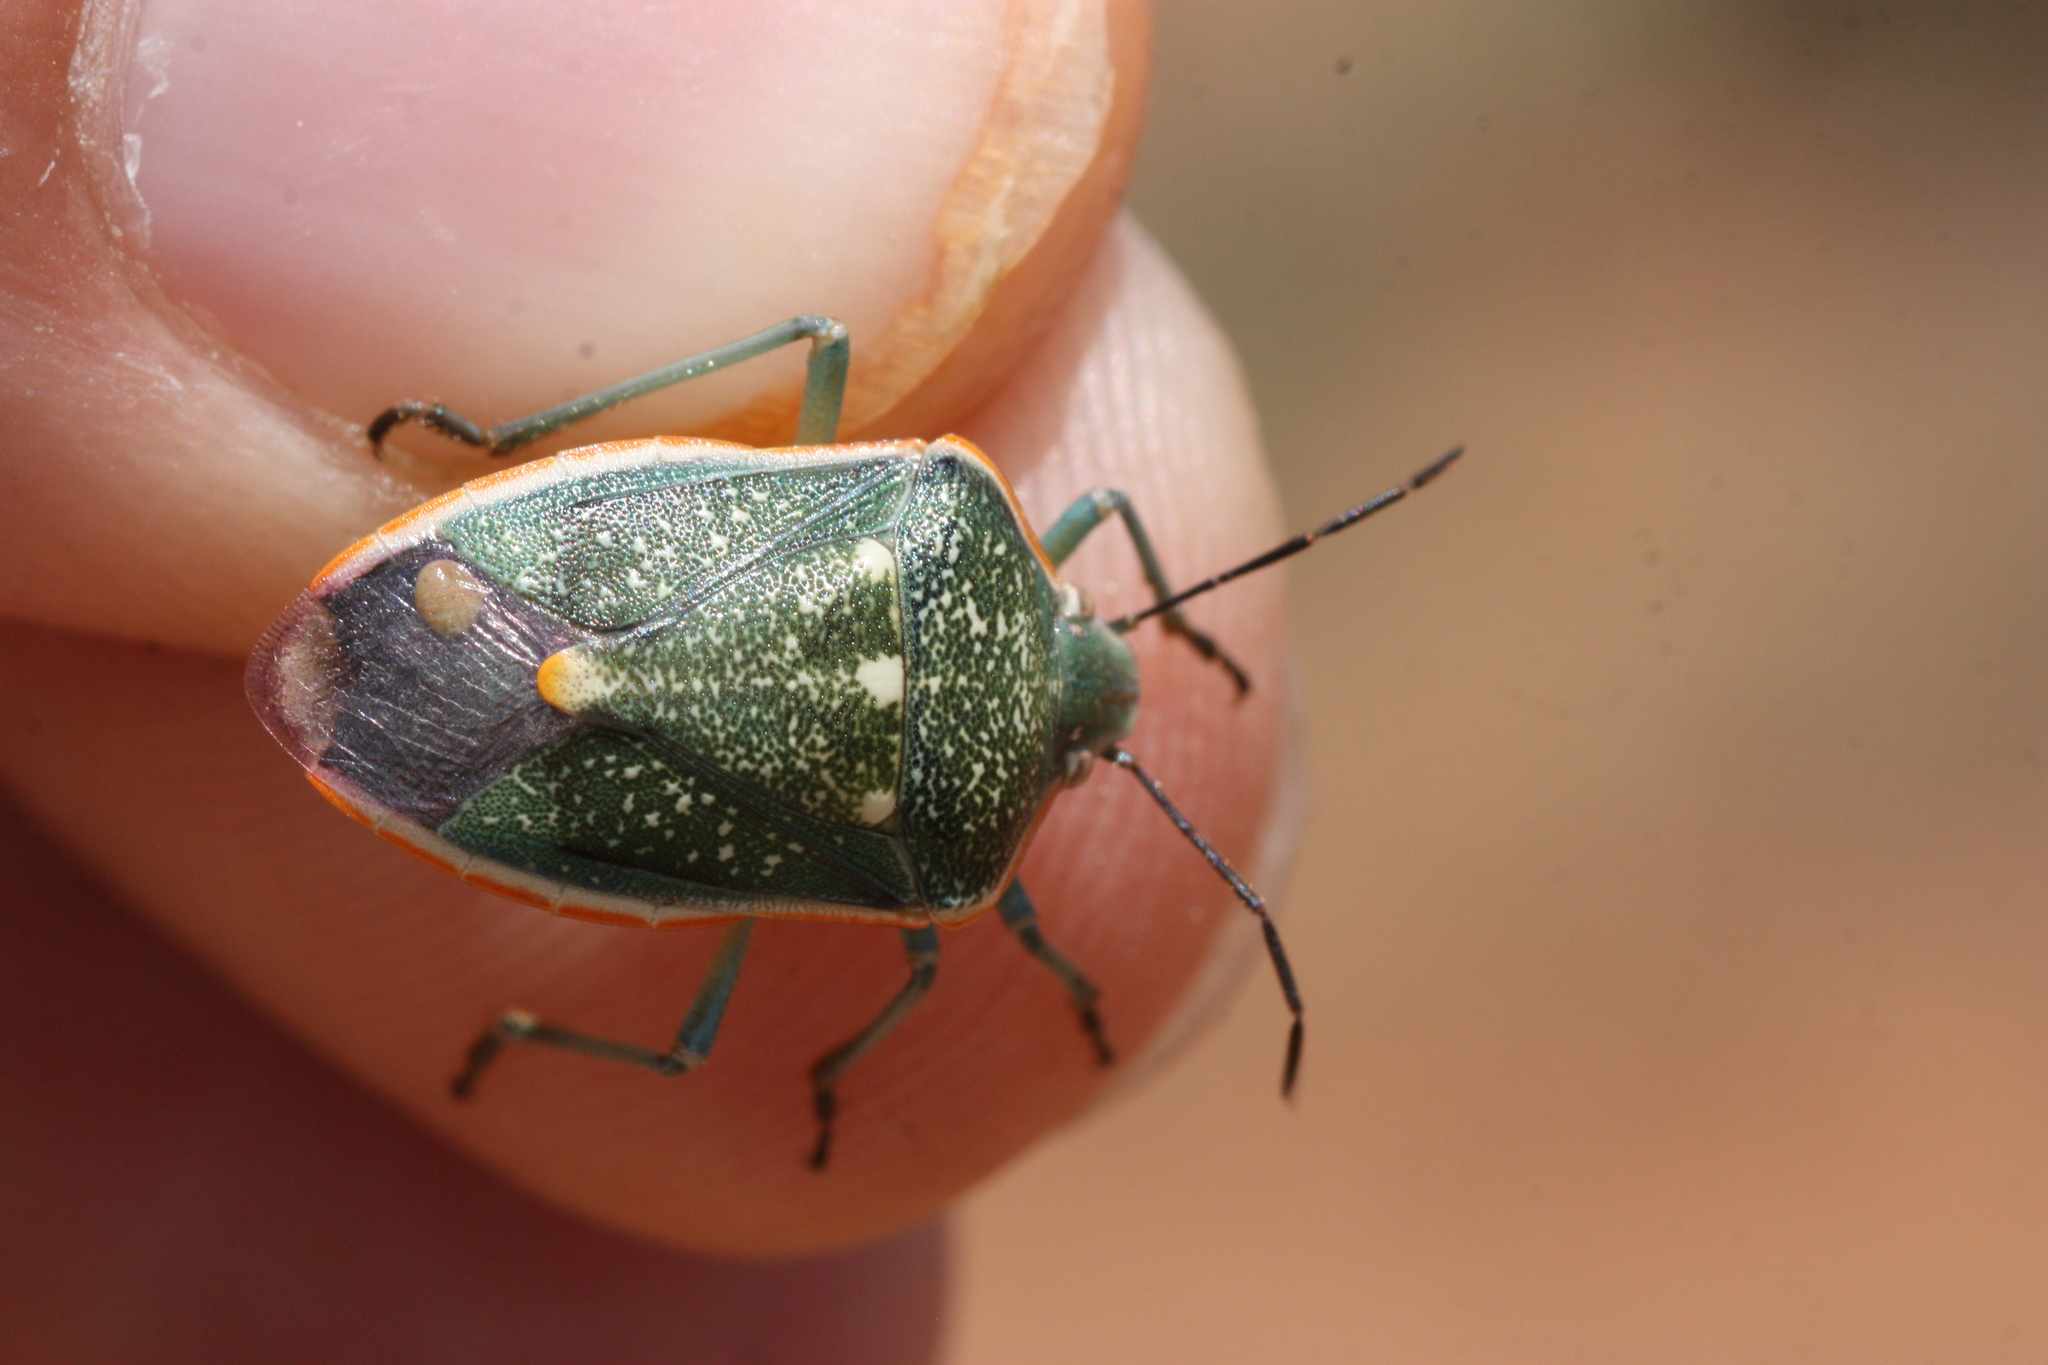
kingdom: Animalia
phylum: Arthropoda
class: Insecta
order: Hemiptera
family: Pentatomidae
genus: Chlorochroa
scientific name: Chlorochroa sayi
